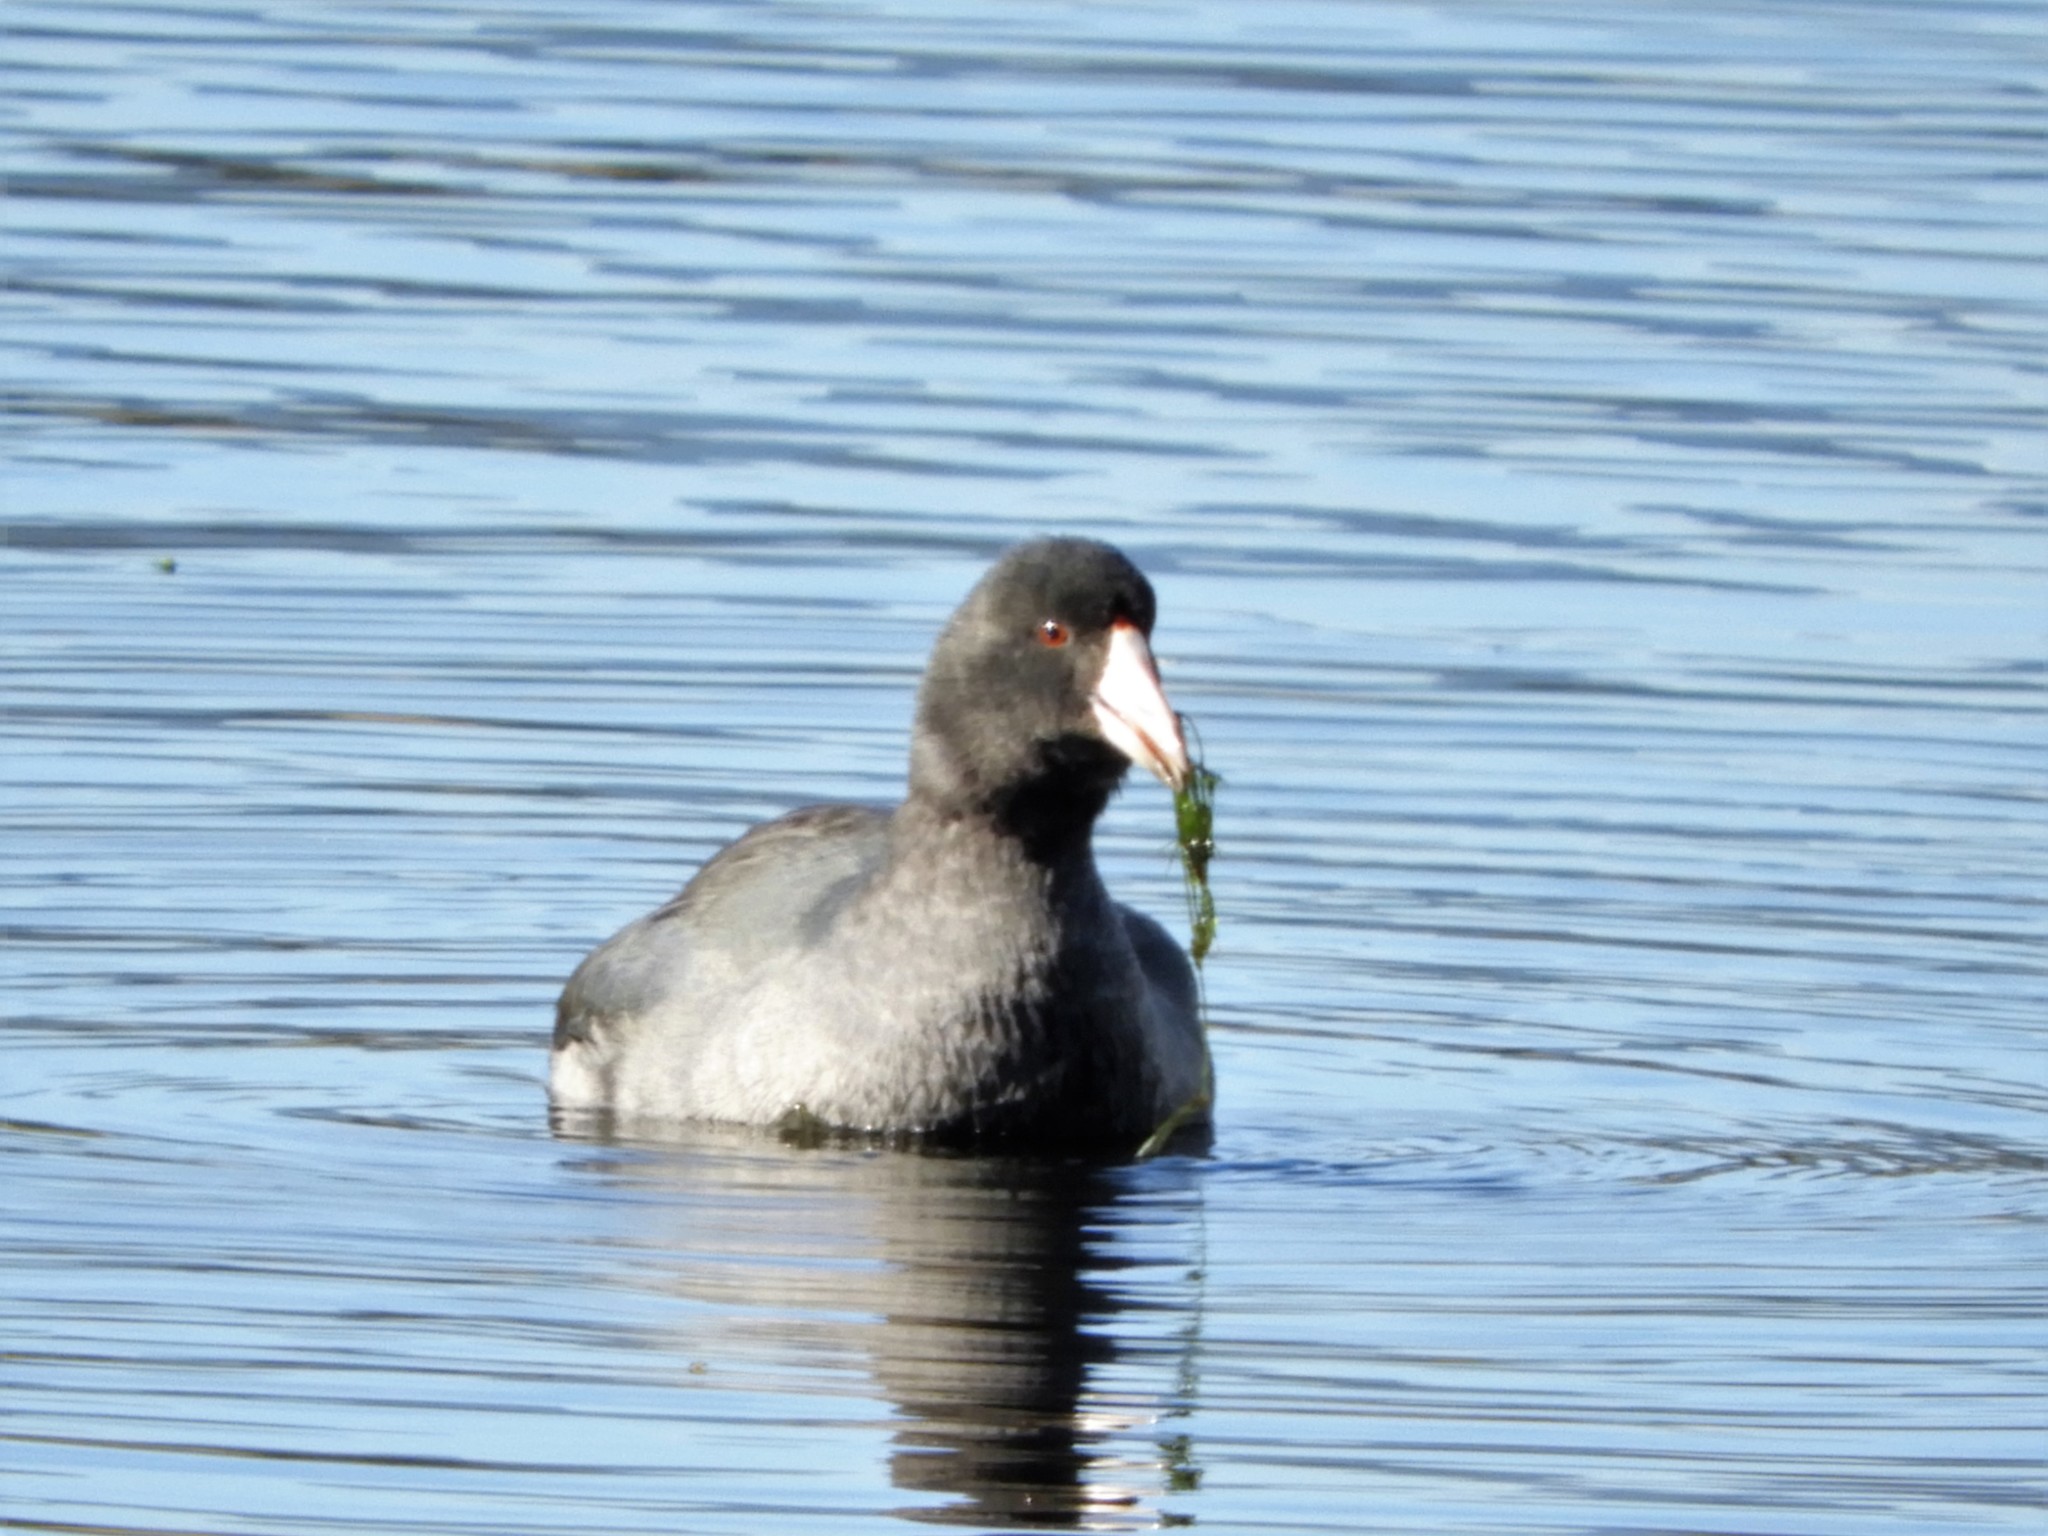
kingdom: Animalia
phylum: Chordata
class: Aves
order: Gruiformes
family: Rallidae
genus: Fulica
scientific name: Fulica americana
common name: American coot
